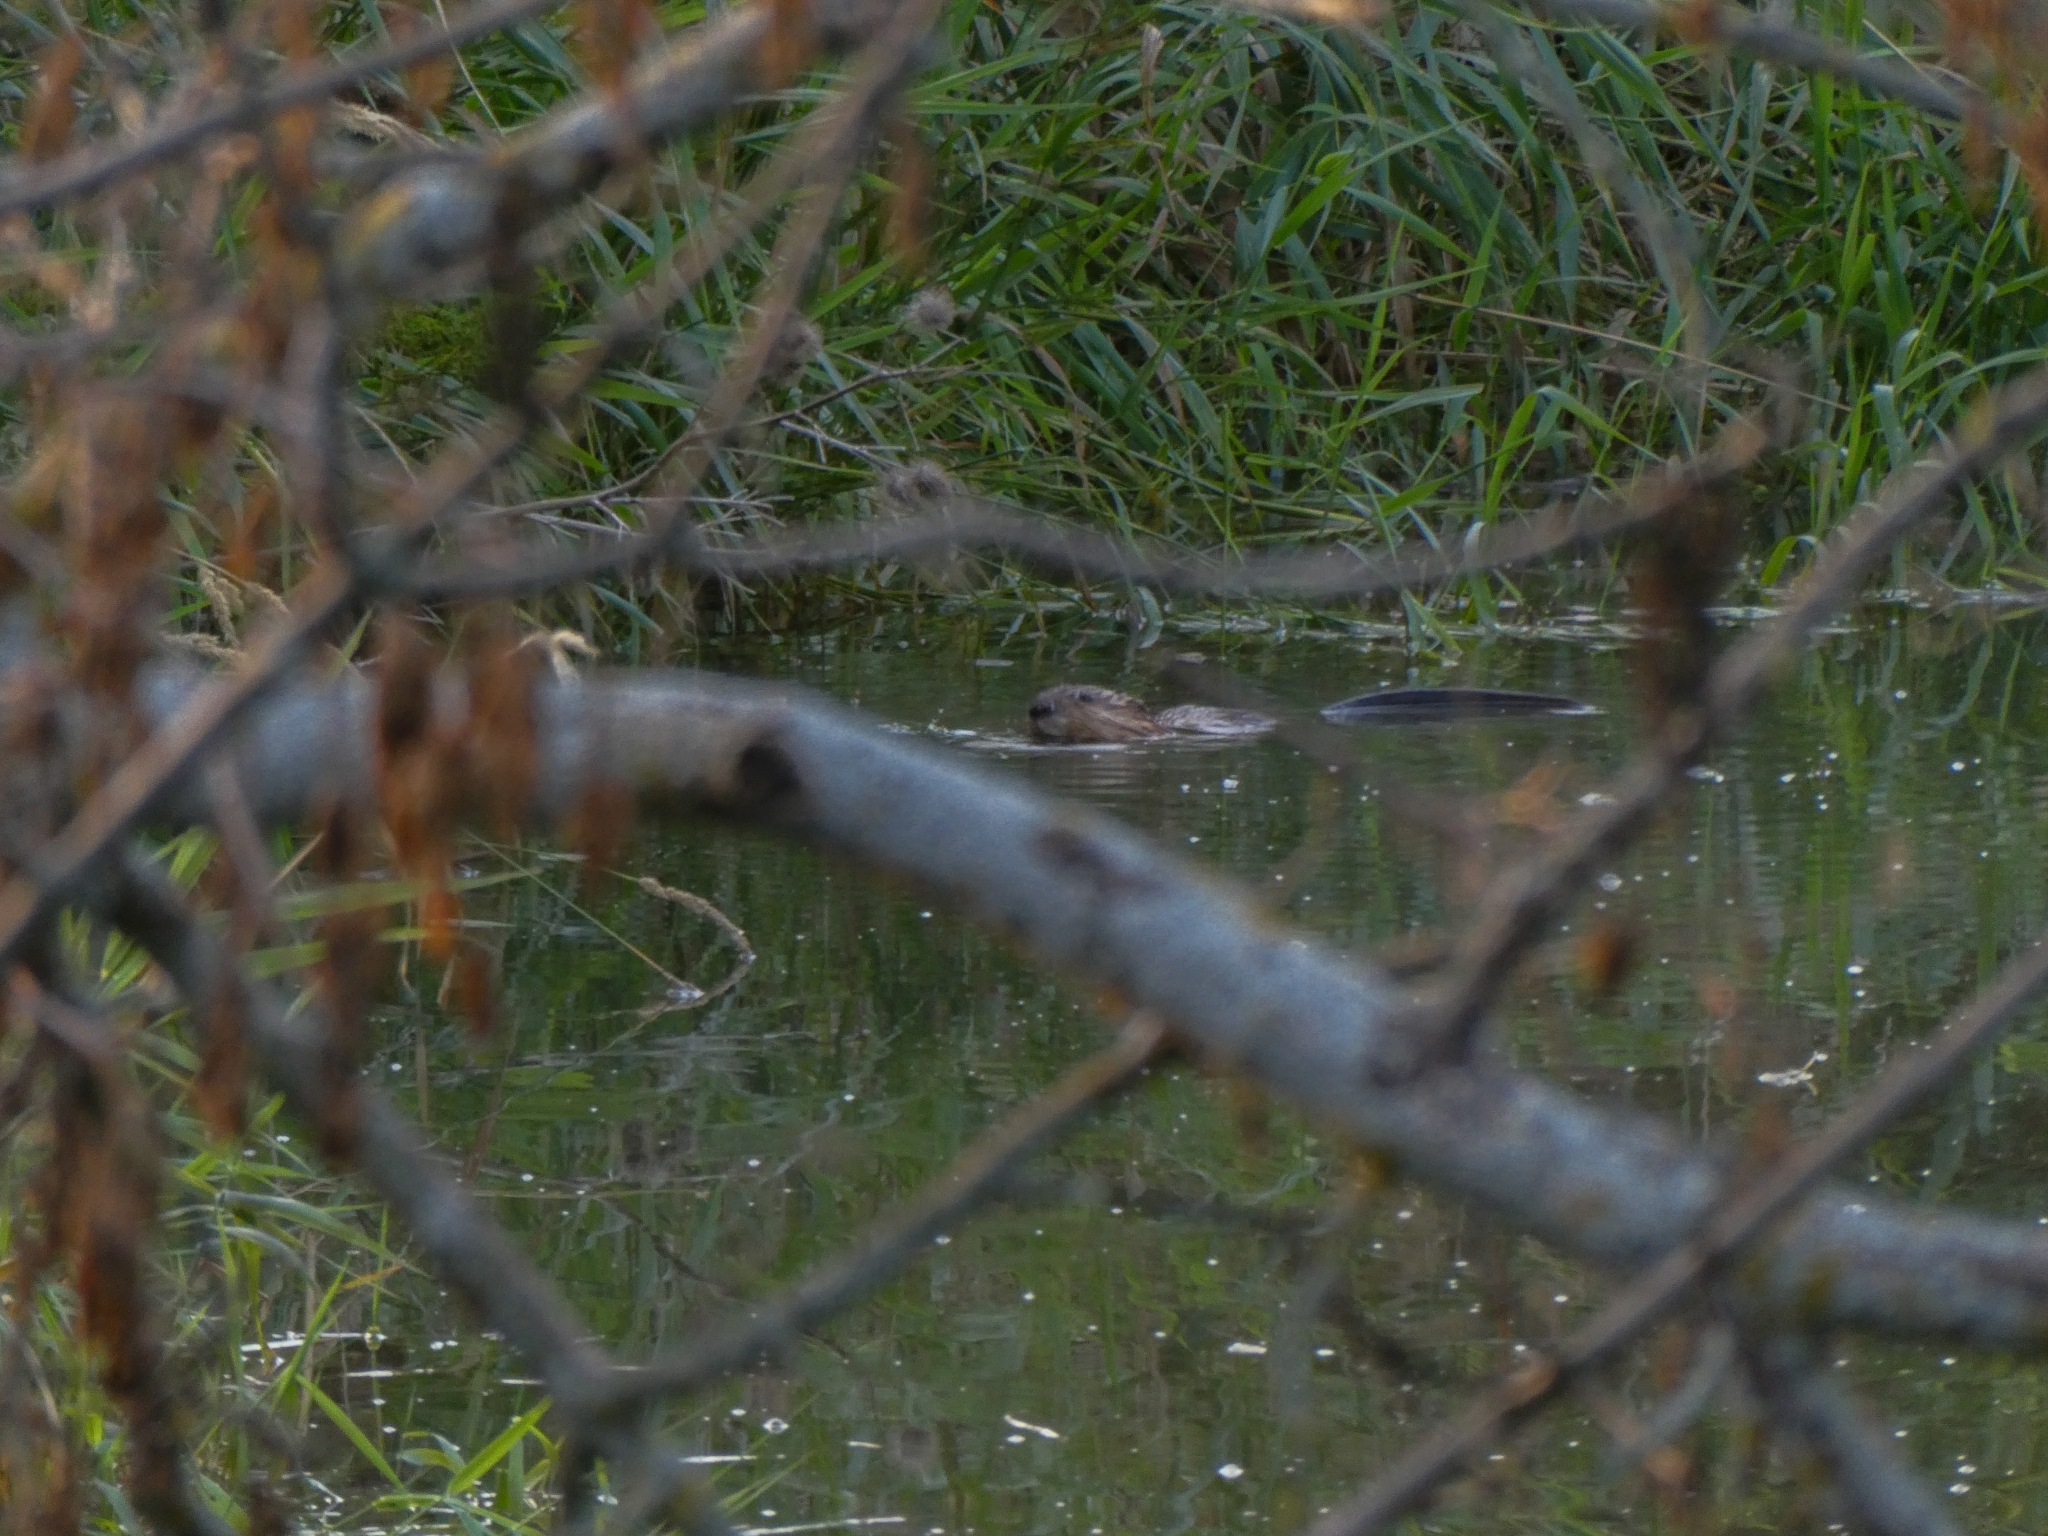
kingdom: Animalia
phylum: Chordata
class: Mammalia
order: Rodentia
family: Cricetidae
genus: Ondatra
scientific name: Ondatra zibethicus
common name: Muskrat
